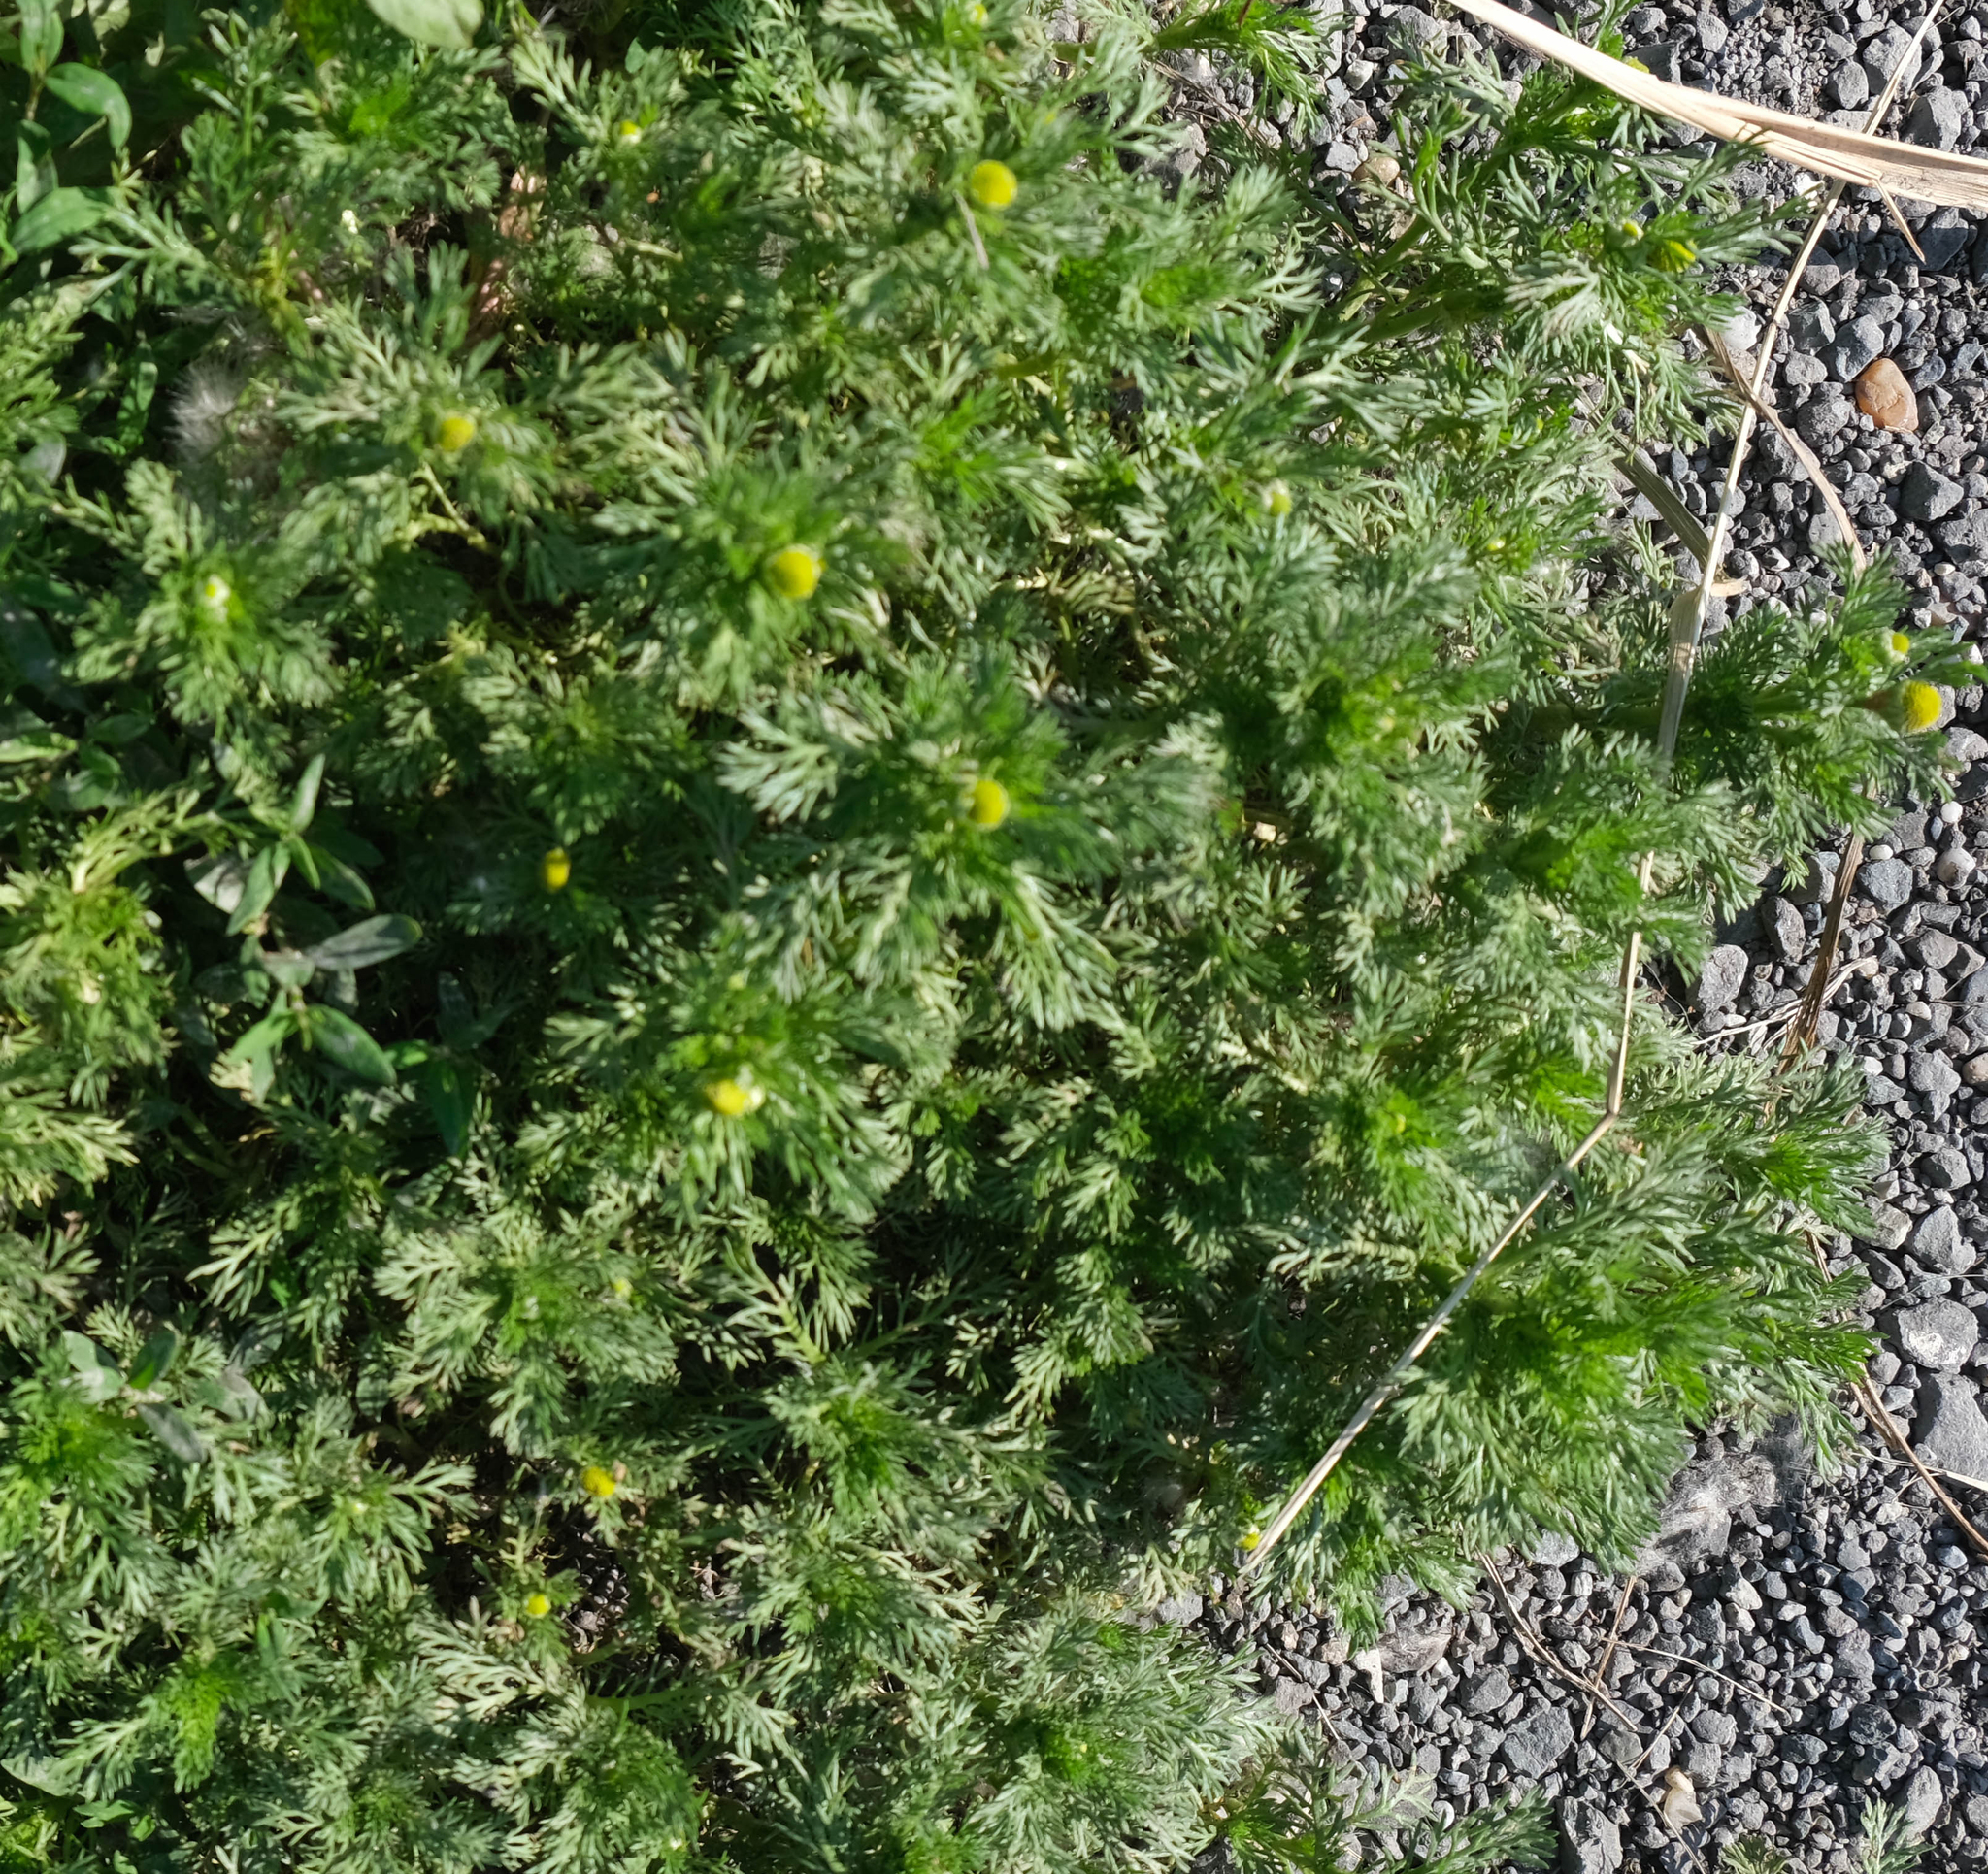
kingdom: Plantae
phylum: Tracheophyta
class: Magnoliopsida
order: Asterales
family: Asteraceae
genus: Matricaria
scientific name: Matricaria discoidea
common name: Disc mayweed
